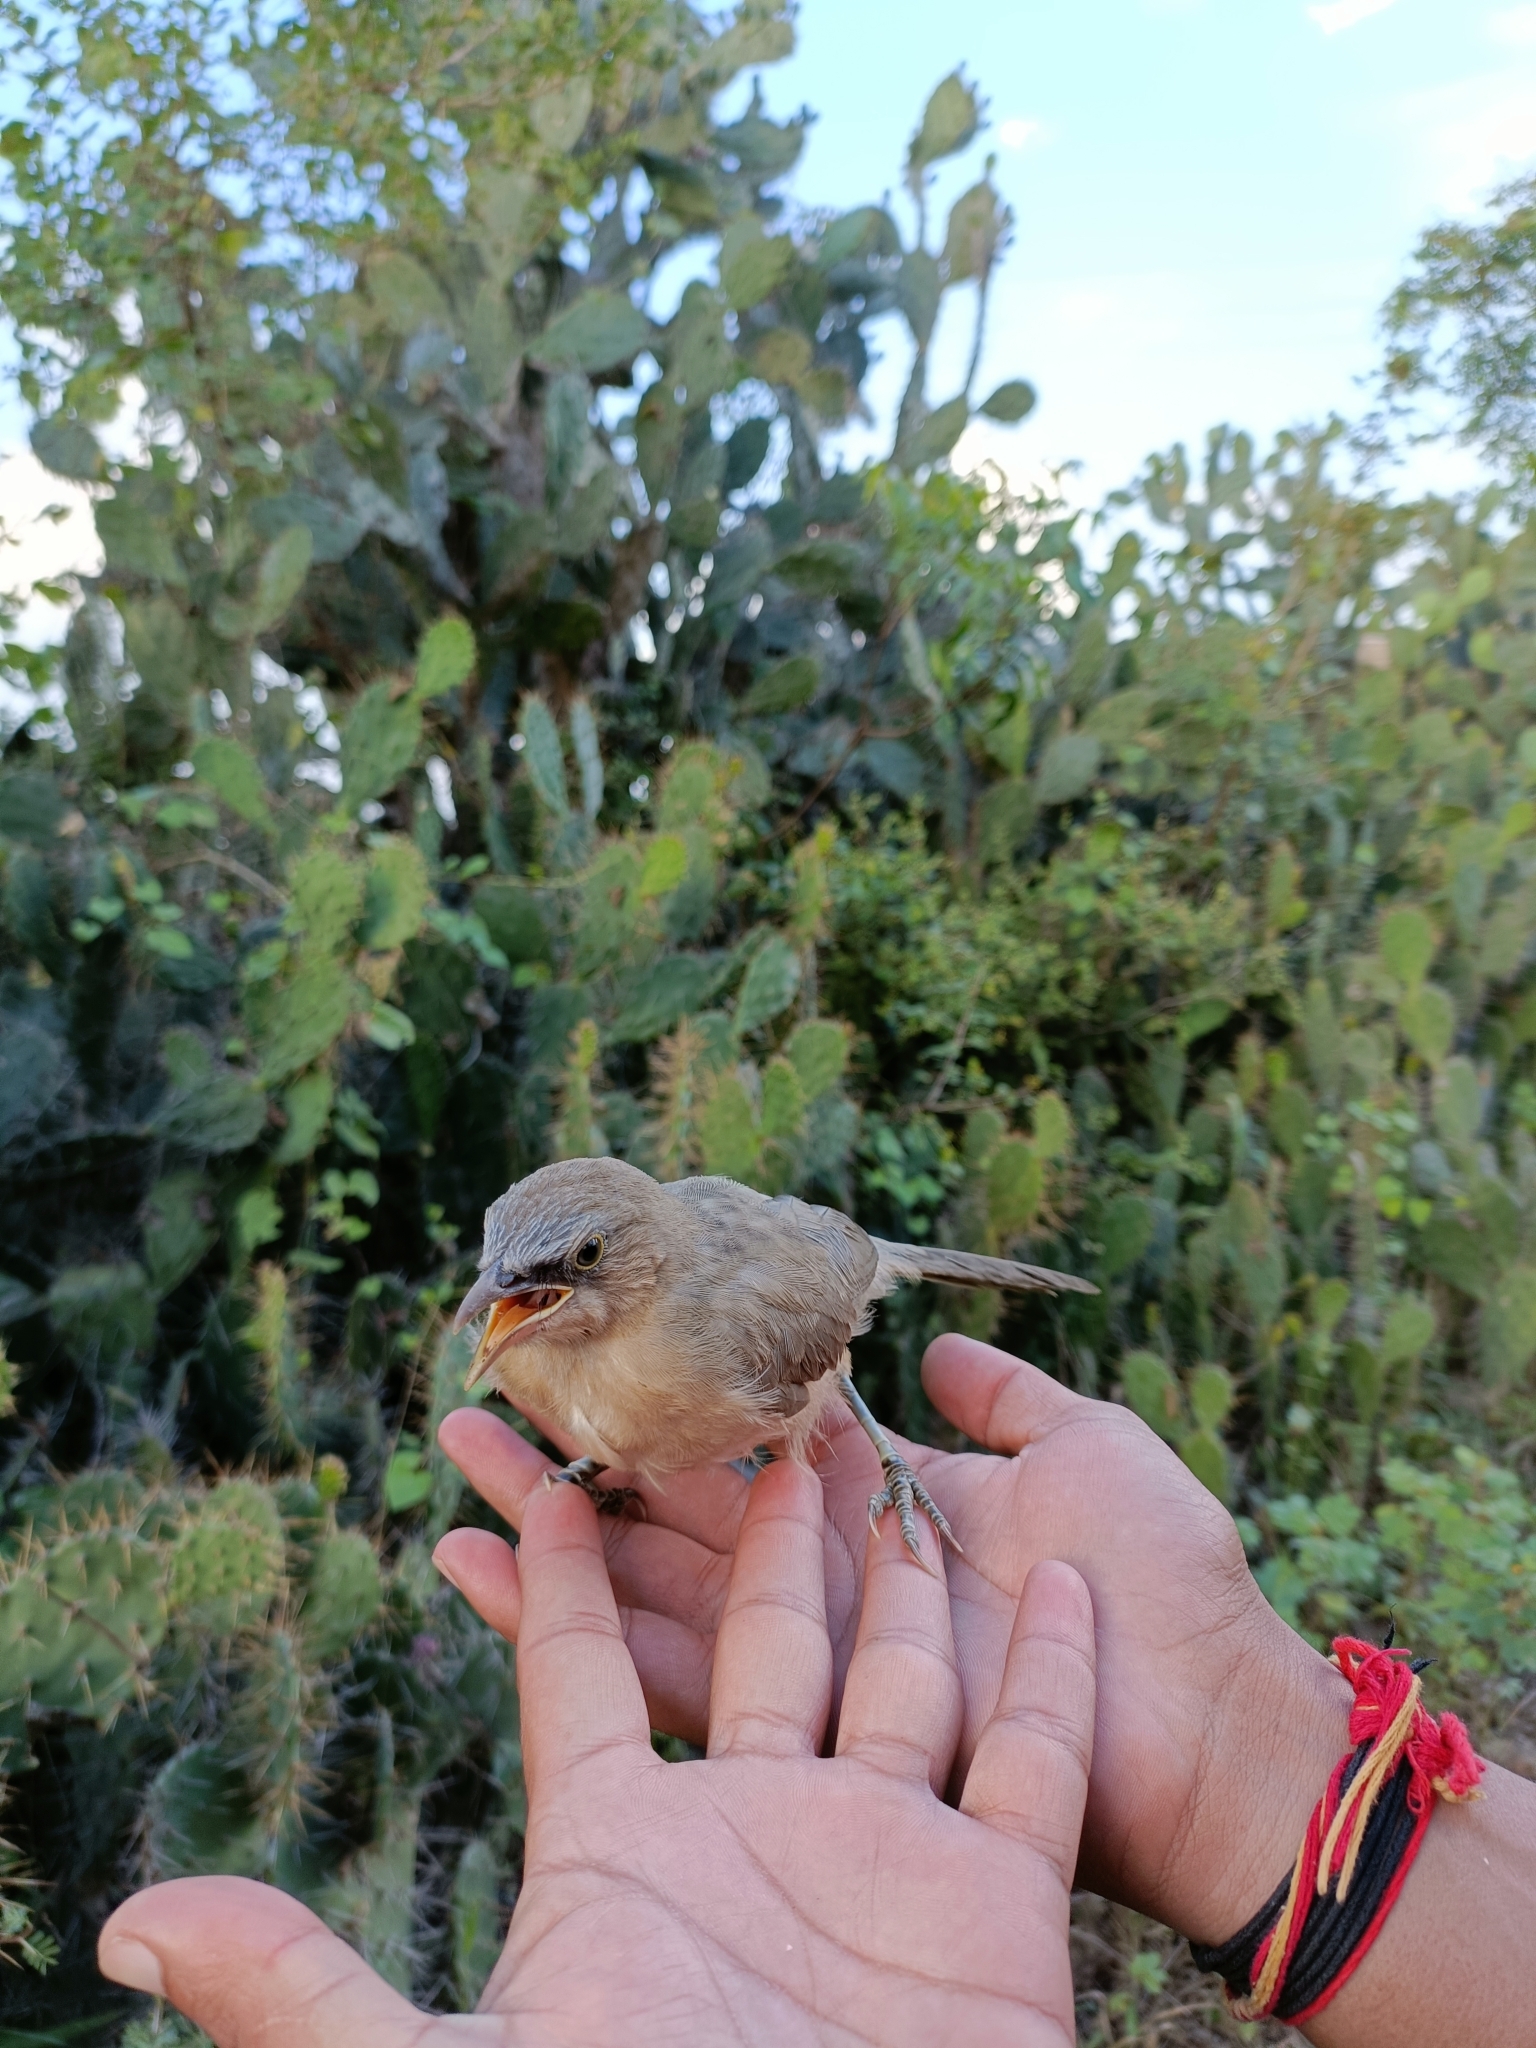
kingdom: Animalia
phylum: Chordata
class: Aves
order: Passeriformes
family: Leiothrichidae
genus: Turdoides
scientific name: Turdoides malcolmi
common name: Large grey babbler
